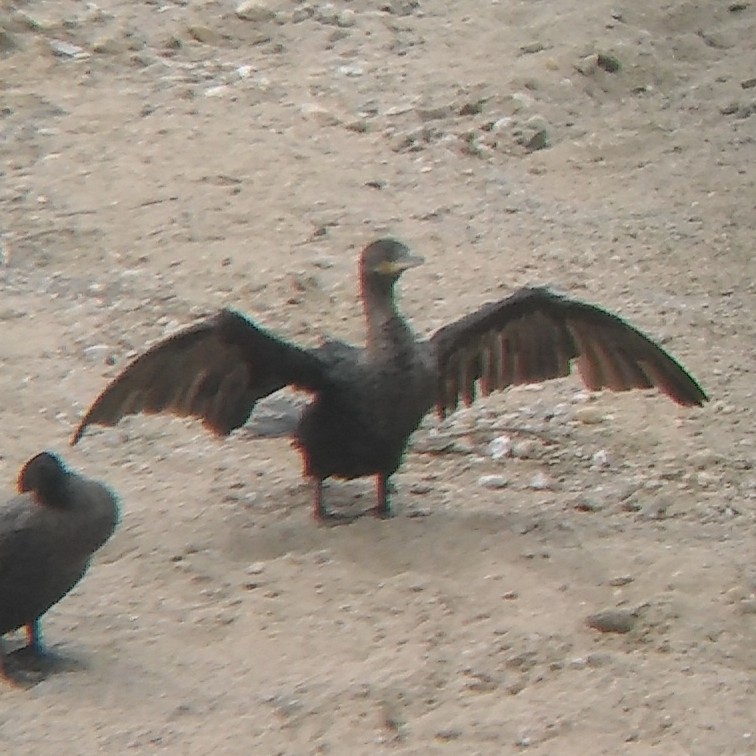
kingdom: Animalia
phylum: Chordata
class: Aves
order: Suliformes
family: Phalacrocoracidae
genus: Phalacrocorax
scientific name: Phalacrocorax brasilianus
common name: Neotropic cormorant
